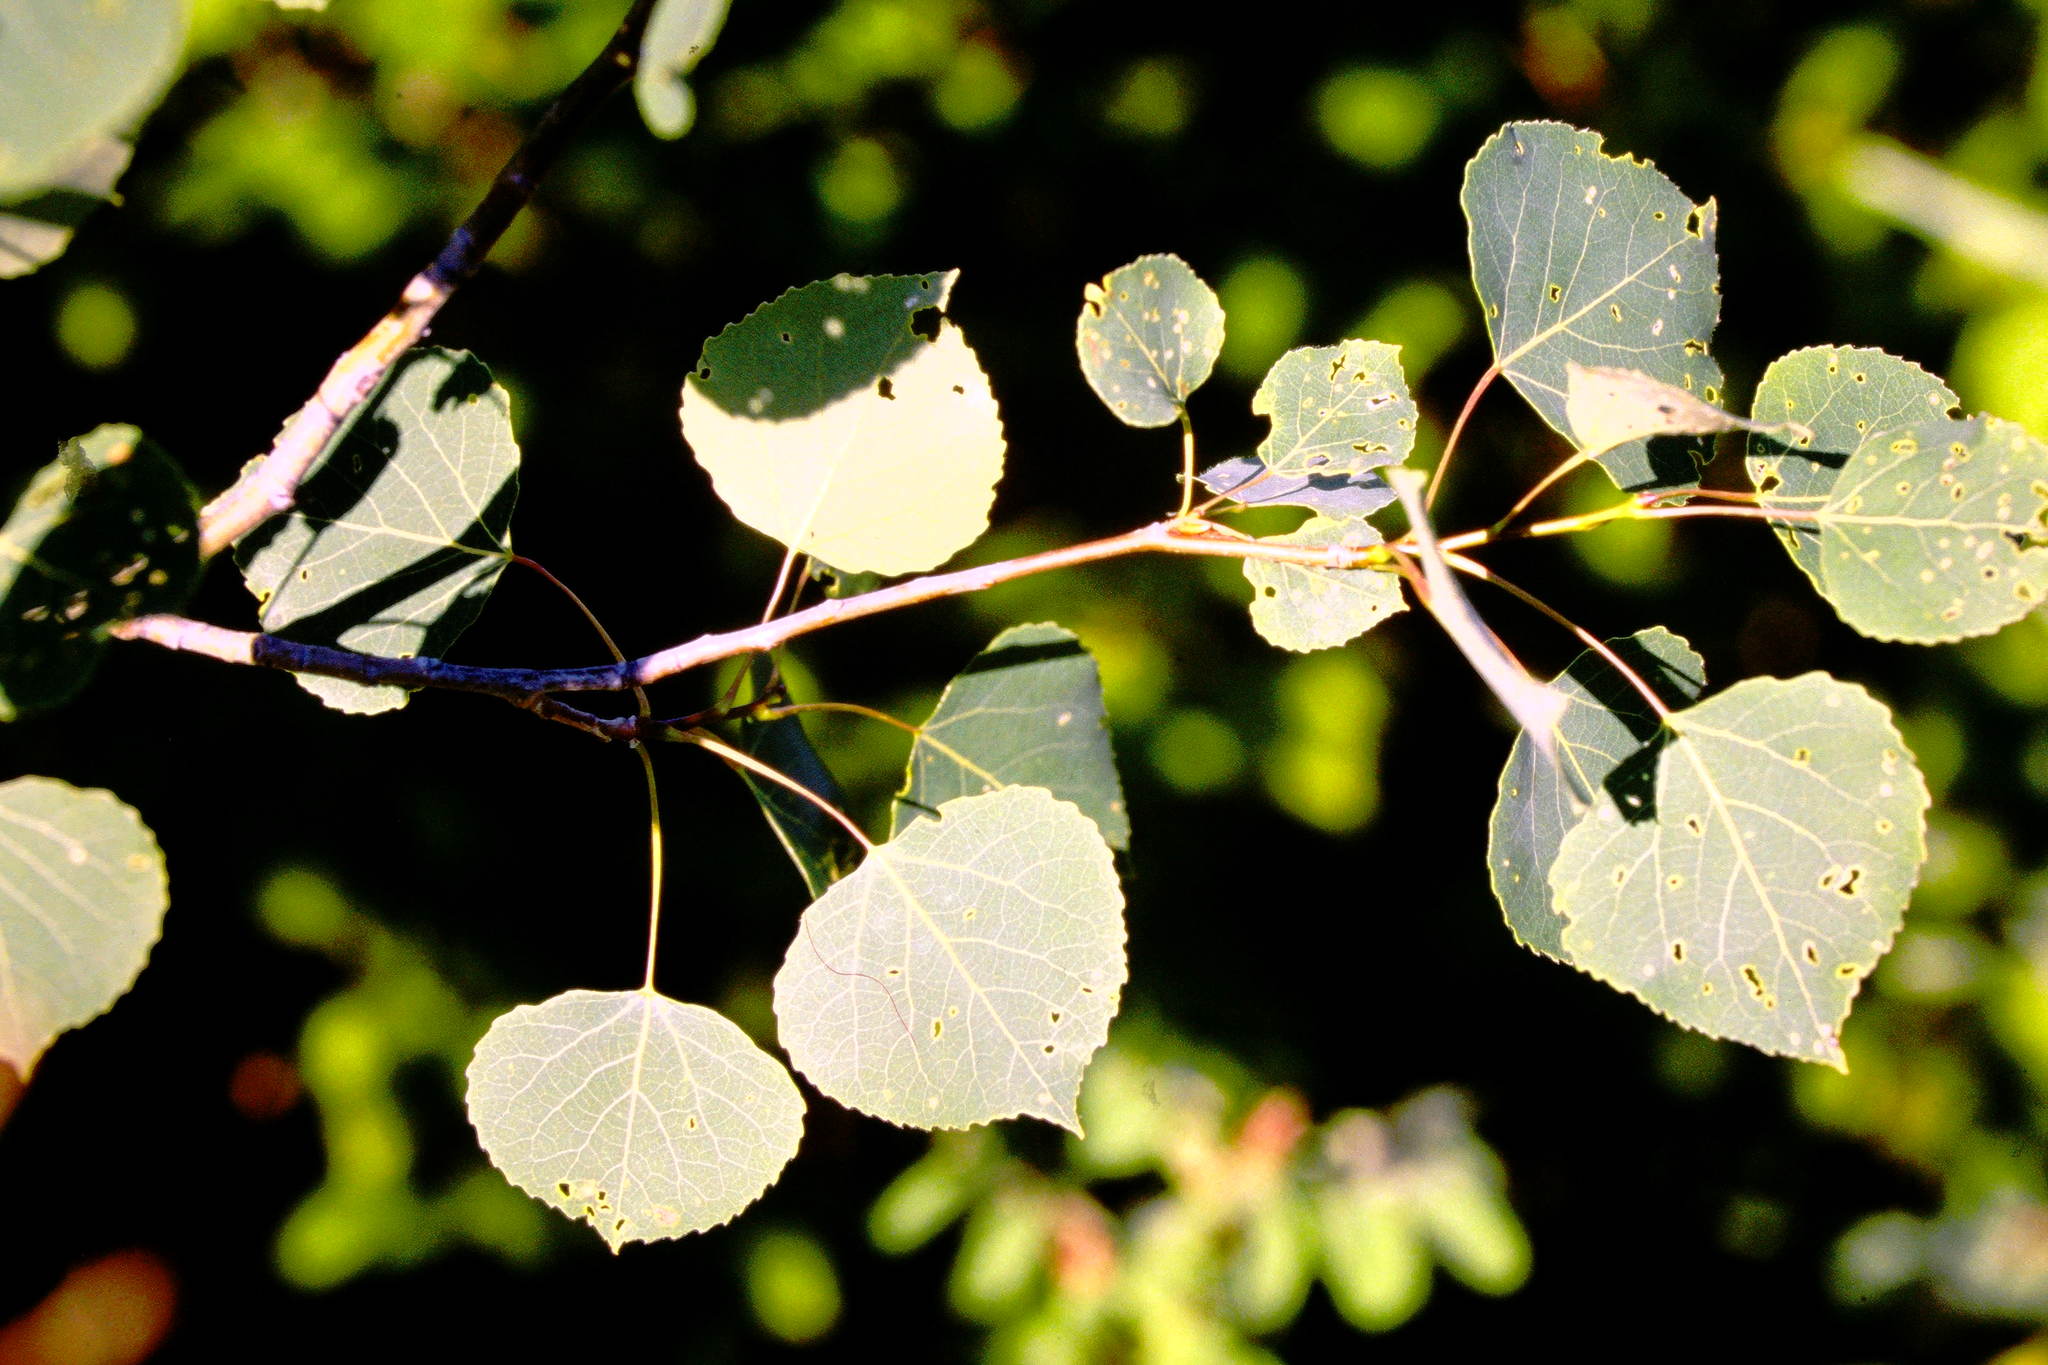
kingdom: Plantae
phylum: Tracheophyta
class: Magnoliopsida
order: Malpighiales
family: Salicaceae
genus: Populus
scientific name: Populus tremuloides
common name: Quaking aspen
